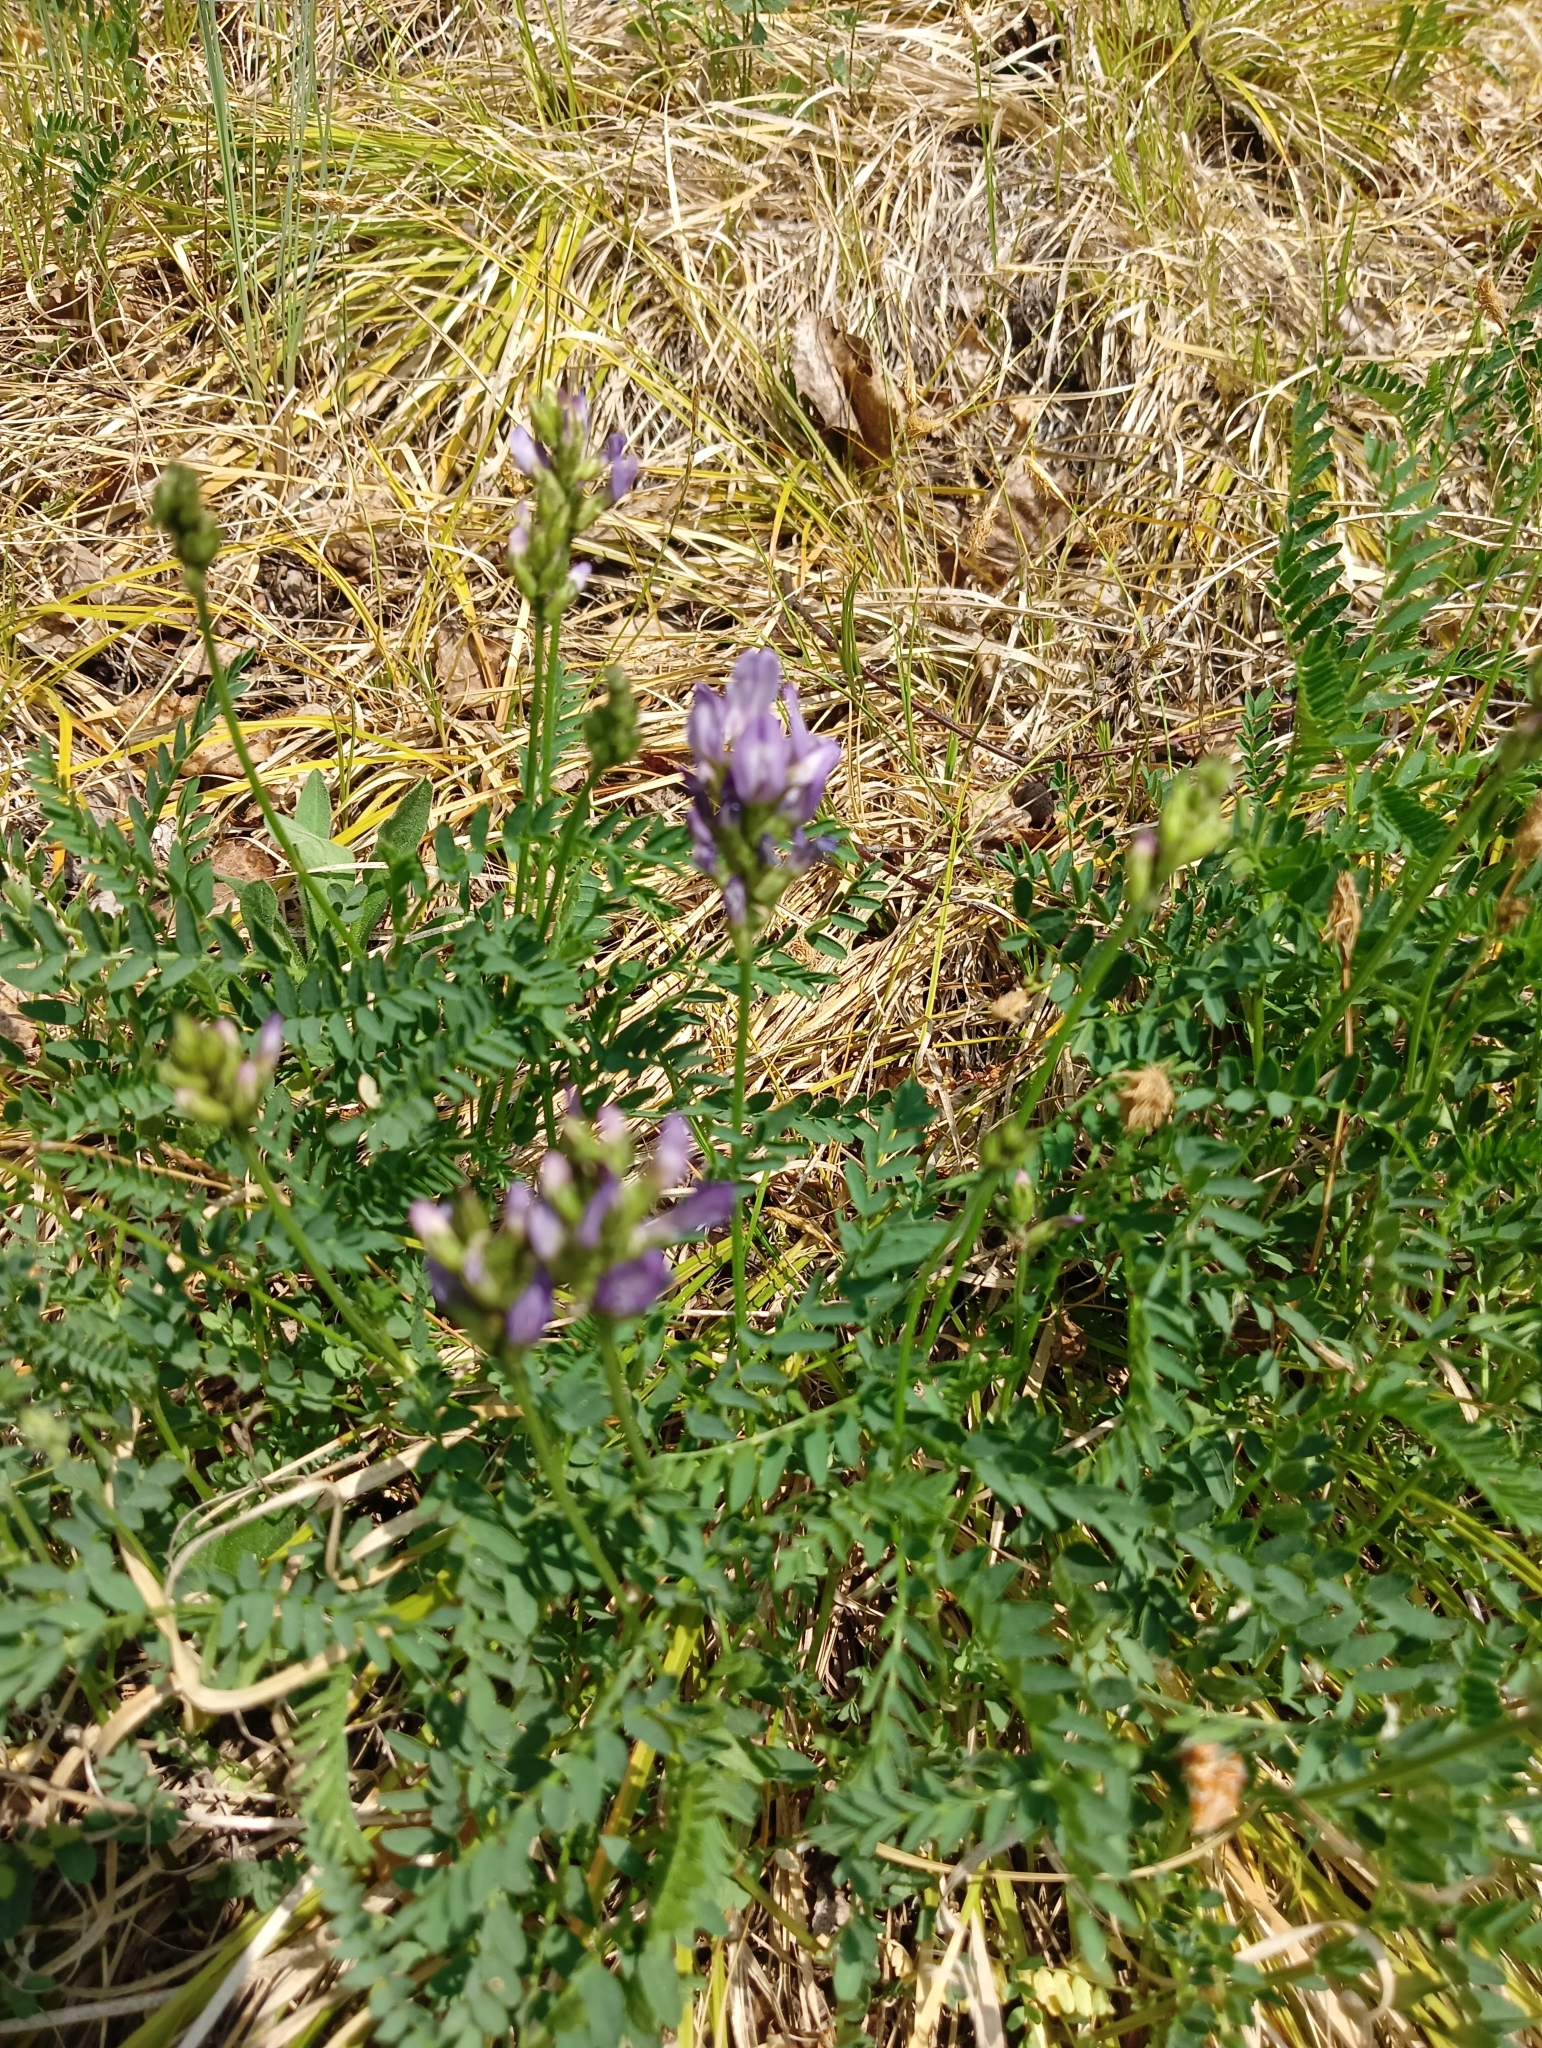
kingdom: Plantae
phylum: Tracheophyta
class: Magnoliopsida
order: Fabales
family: Fabaceae
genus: Astragalus
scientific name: Astragalus danicus
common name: Purple milk-vetch
